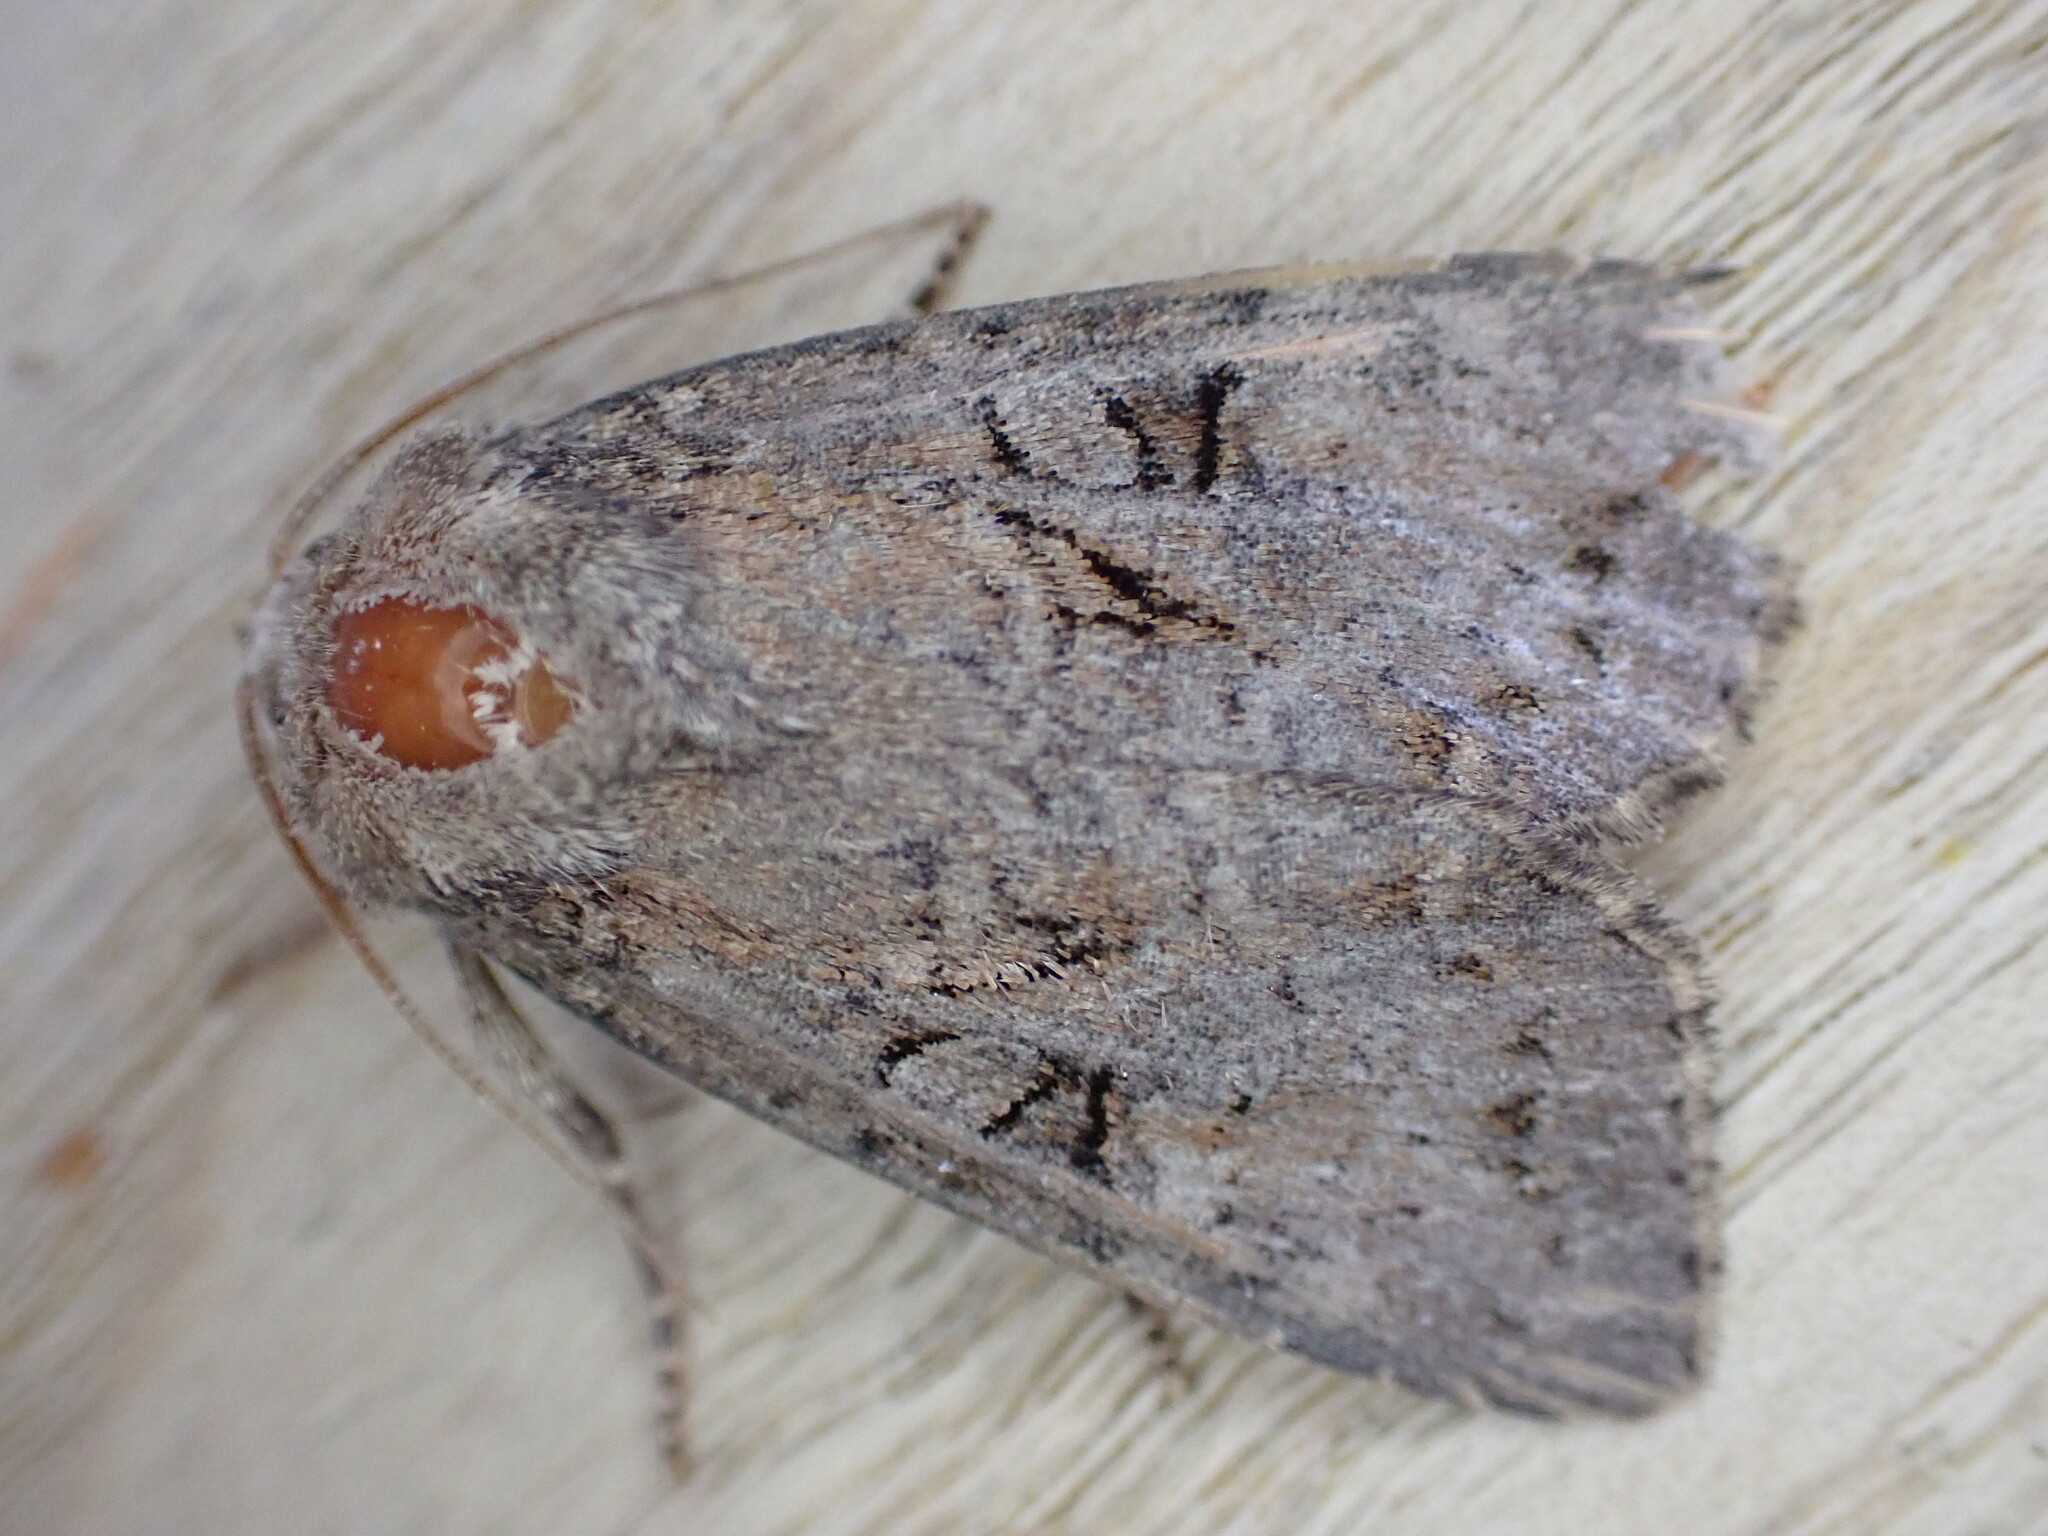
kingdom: Animalia
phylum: Arthropoda
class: Insecta
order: Lepidoptera
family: Noctuidae
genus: Apterogenum
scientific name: Apterogenum ypsillon
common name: Dingy shears
